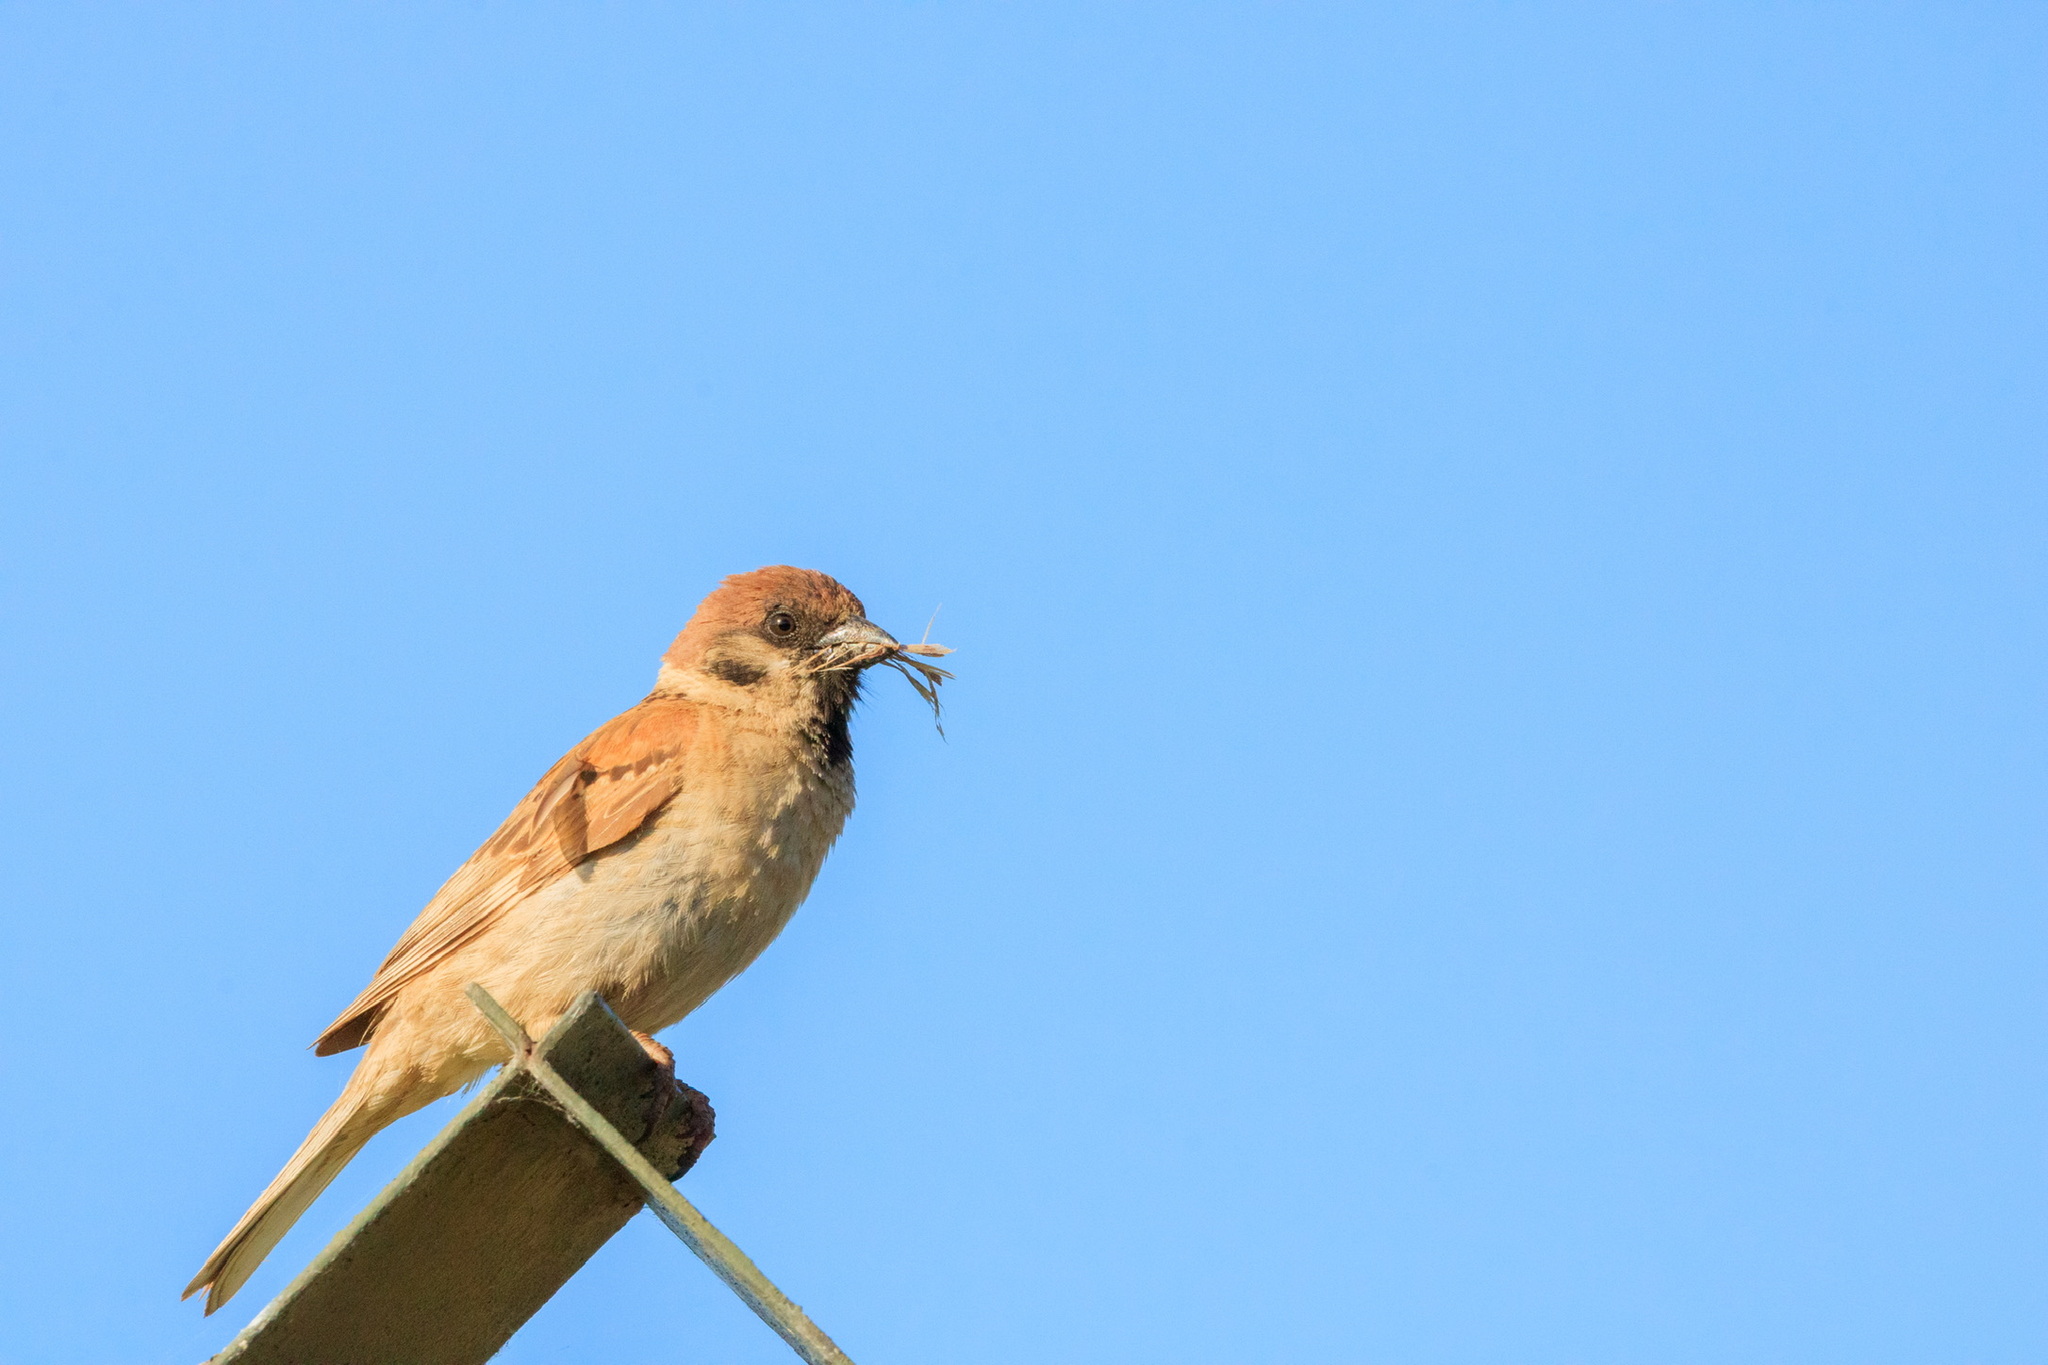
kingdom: Animalia
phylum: Chordata
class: Aves
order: Passeriformes
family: Passeridae
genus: Passer
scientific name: Passer montanus
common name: Eurasian tree sparrow
